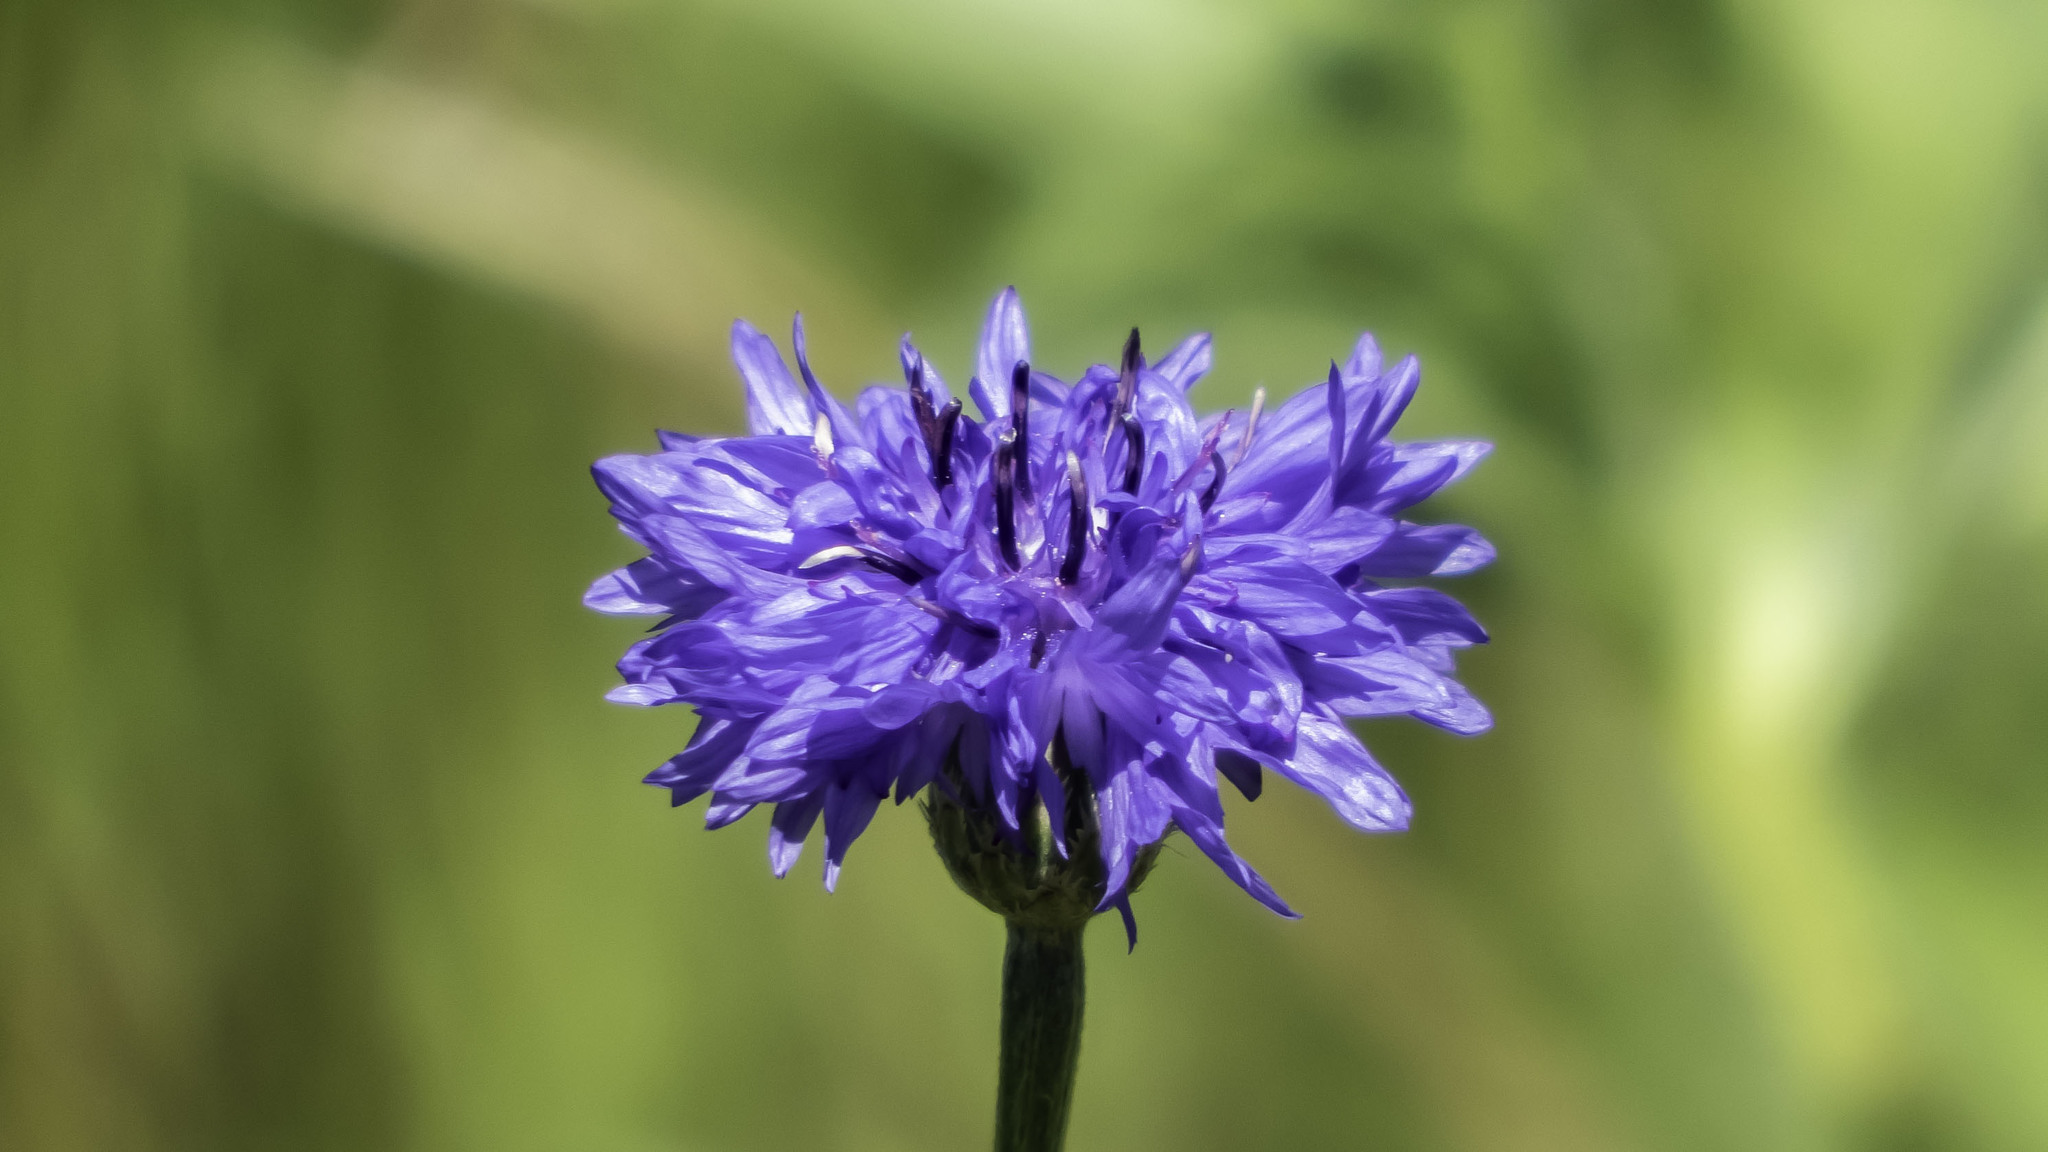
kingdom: Plantae
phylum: Tracheophyta
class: Magnoliopsida
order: Asterales
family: Asteraceae
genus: Centaurea
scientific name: Centaurea cyanus
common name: Cornflower
